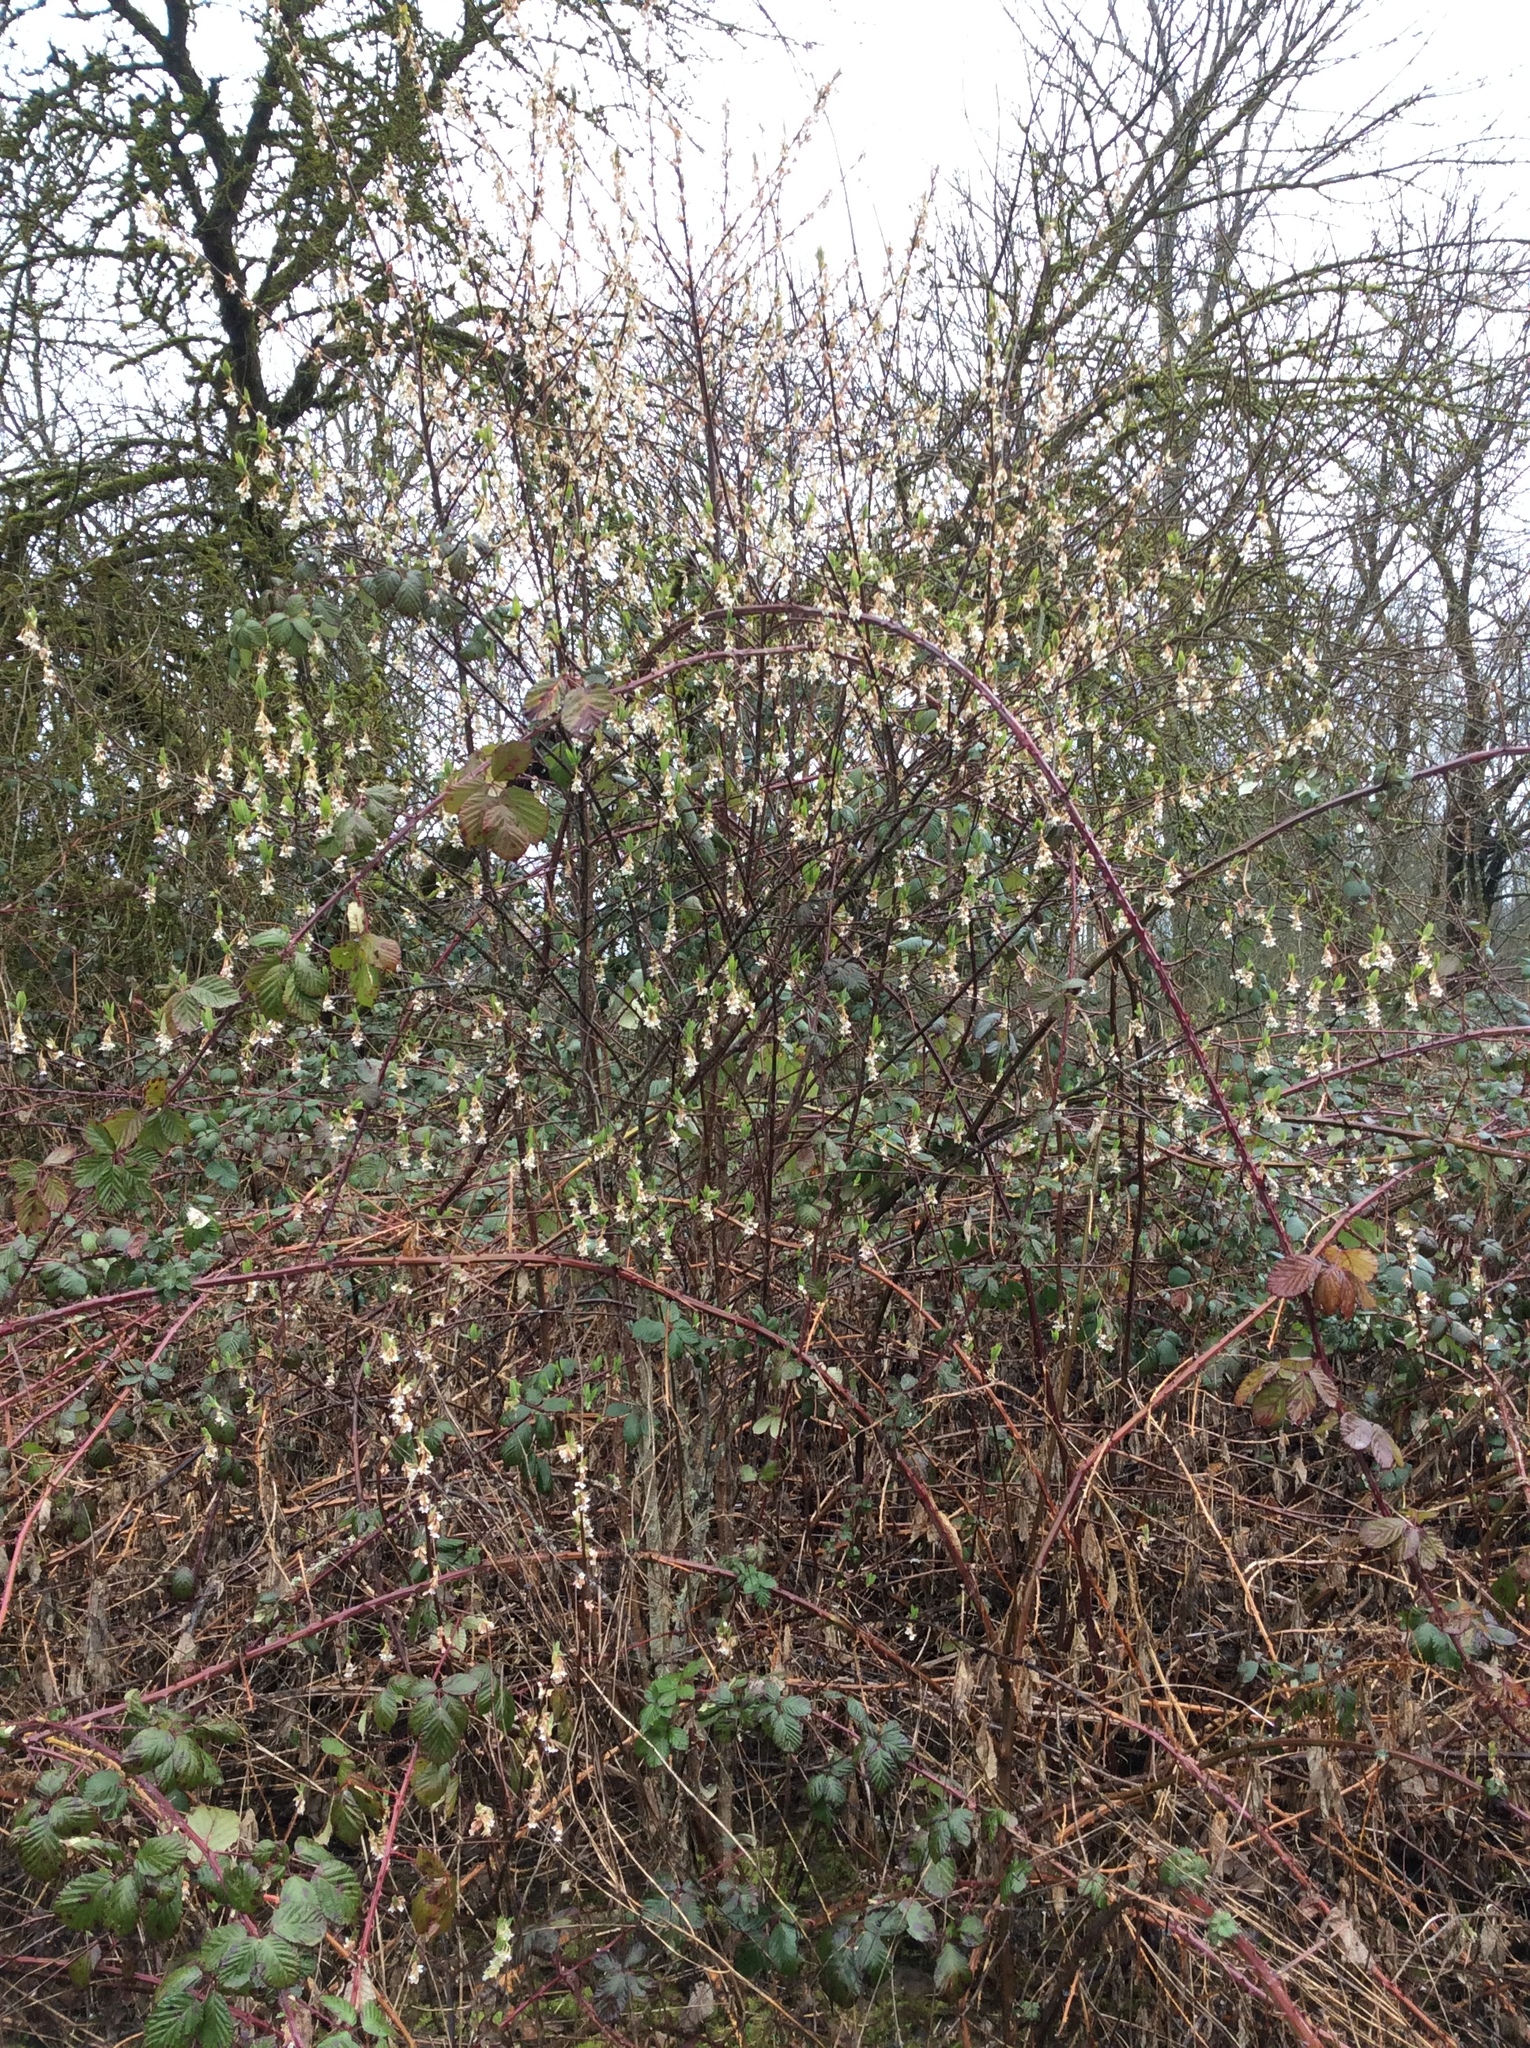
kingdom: Plantae
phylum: Tracheophyta
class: Magnoliopsida
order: Rosales
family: Rosaceae
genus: Oemleria
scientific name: Oemleria cerasiformis
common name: Osoberry
